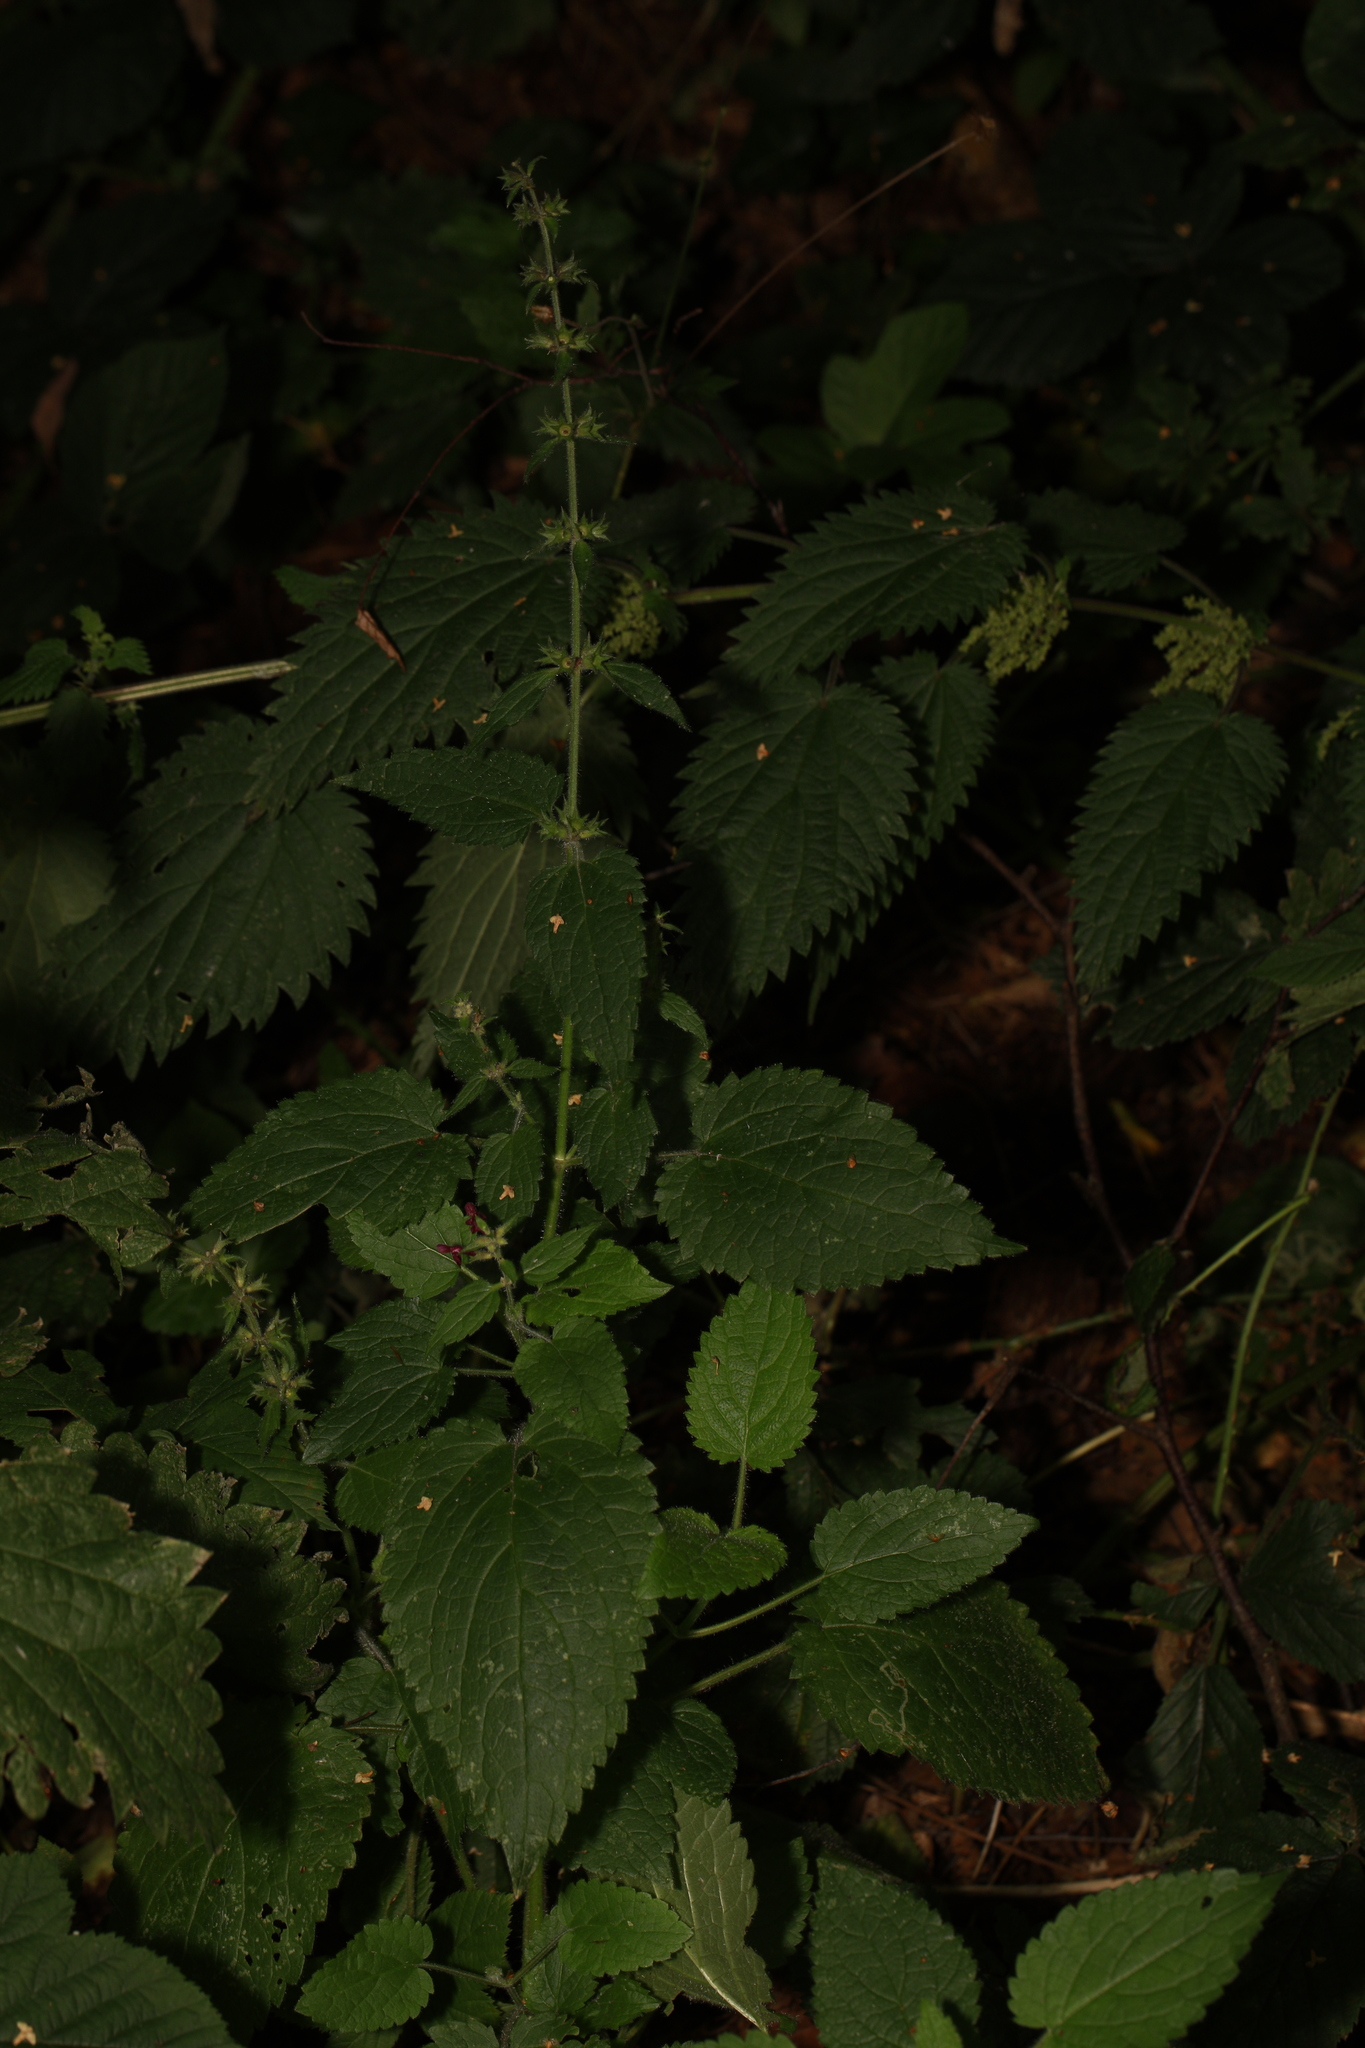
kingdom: Plantae
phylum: Tracheophyta
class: Magnoliopsida
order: Lamiales
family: Lamiaceae
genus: Stachys
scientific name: Stachys sylvatica
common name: Hedge woundwort
